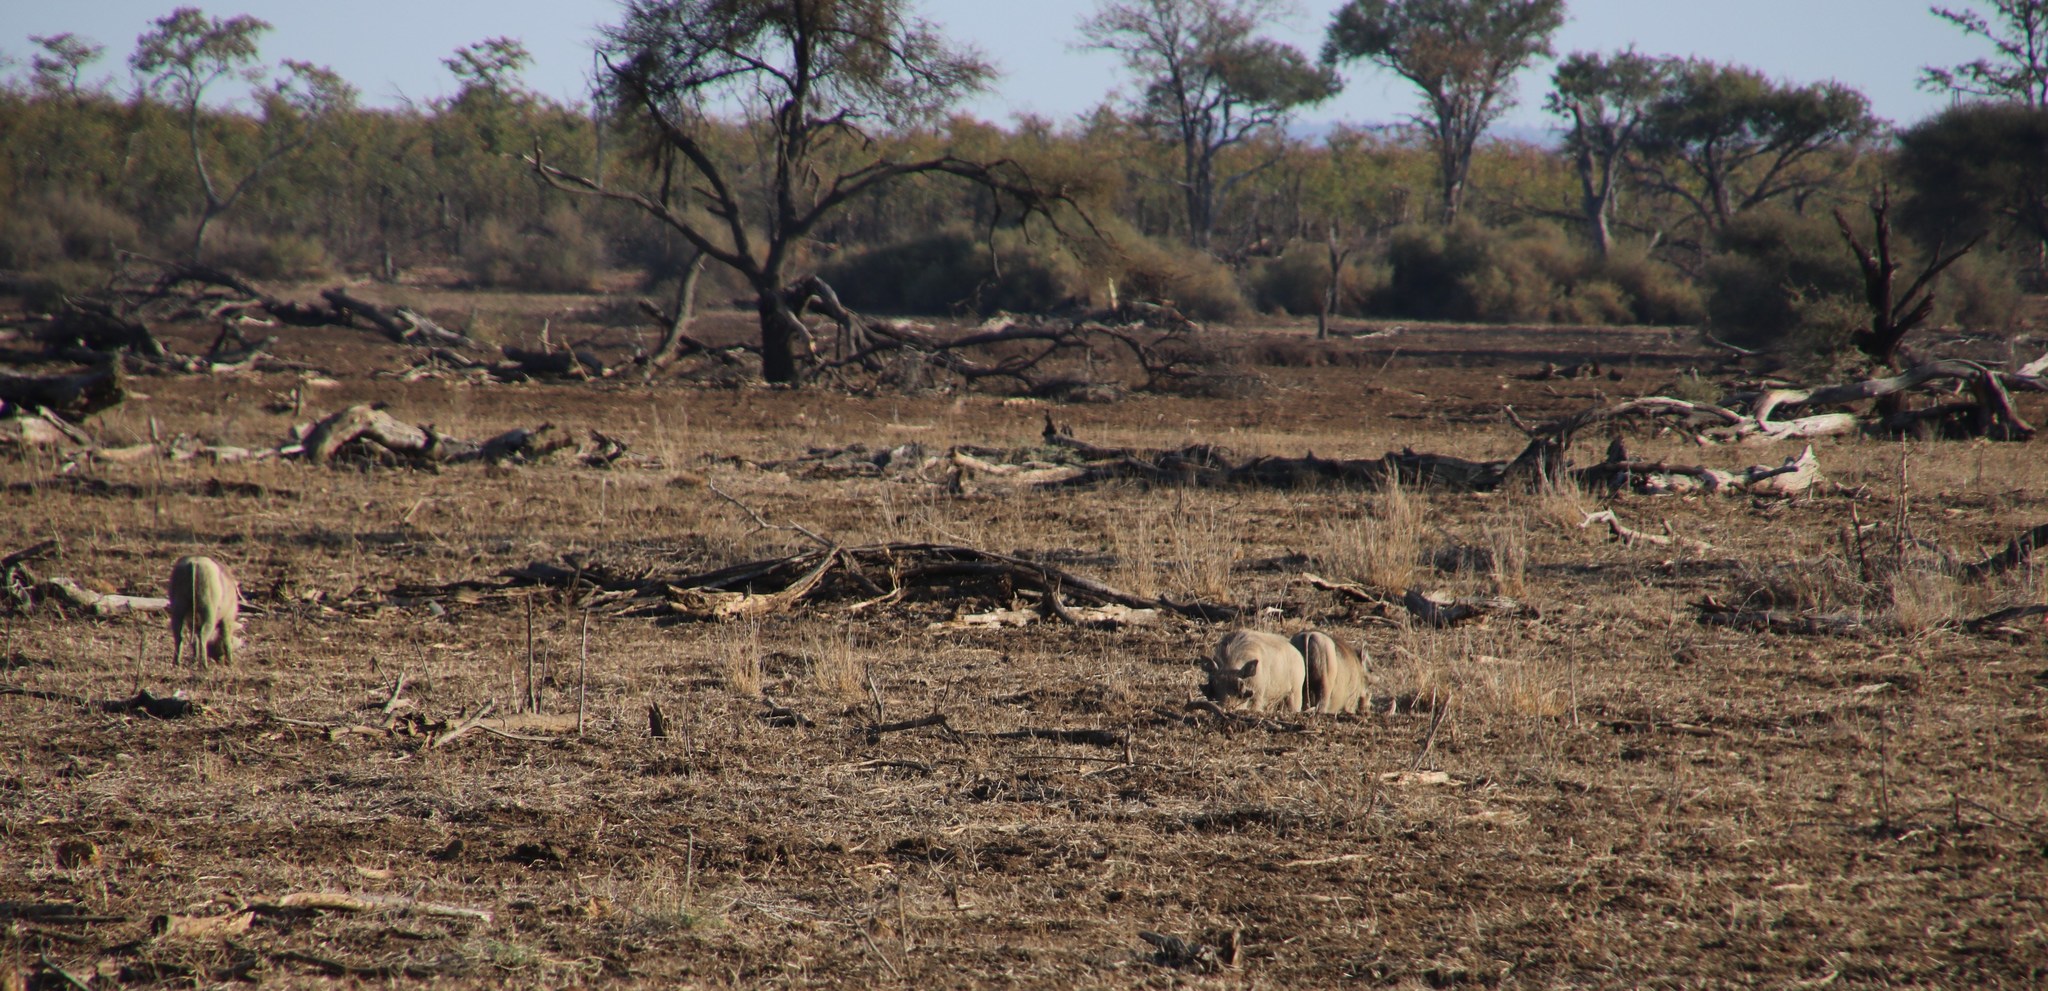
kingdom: Animalia
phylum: Chordata
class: Mammalia
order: Artiodactyla
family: Suidae
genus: Phacochoerus
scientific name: Phacochoerus africanus
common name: Common warthog
